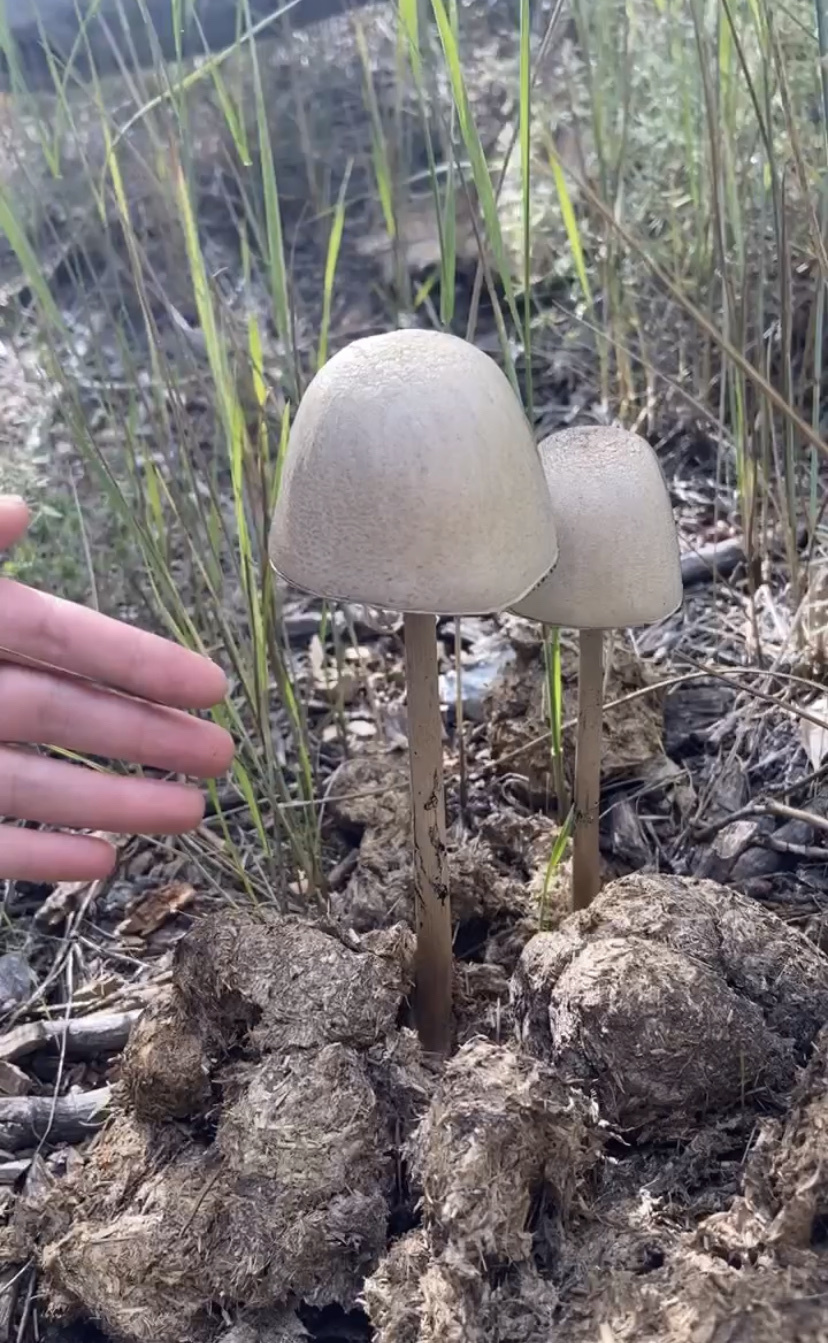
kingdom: Fungi
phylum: Basidiomycota
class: Agaricomycetes
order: Agaricales
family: Bolbitiaceae
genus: Panaeolus
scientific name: Panaeolus semiovatus
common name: Shiny mottlegill
